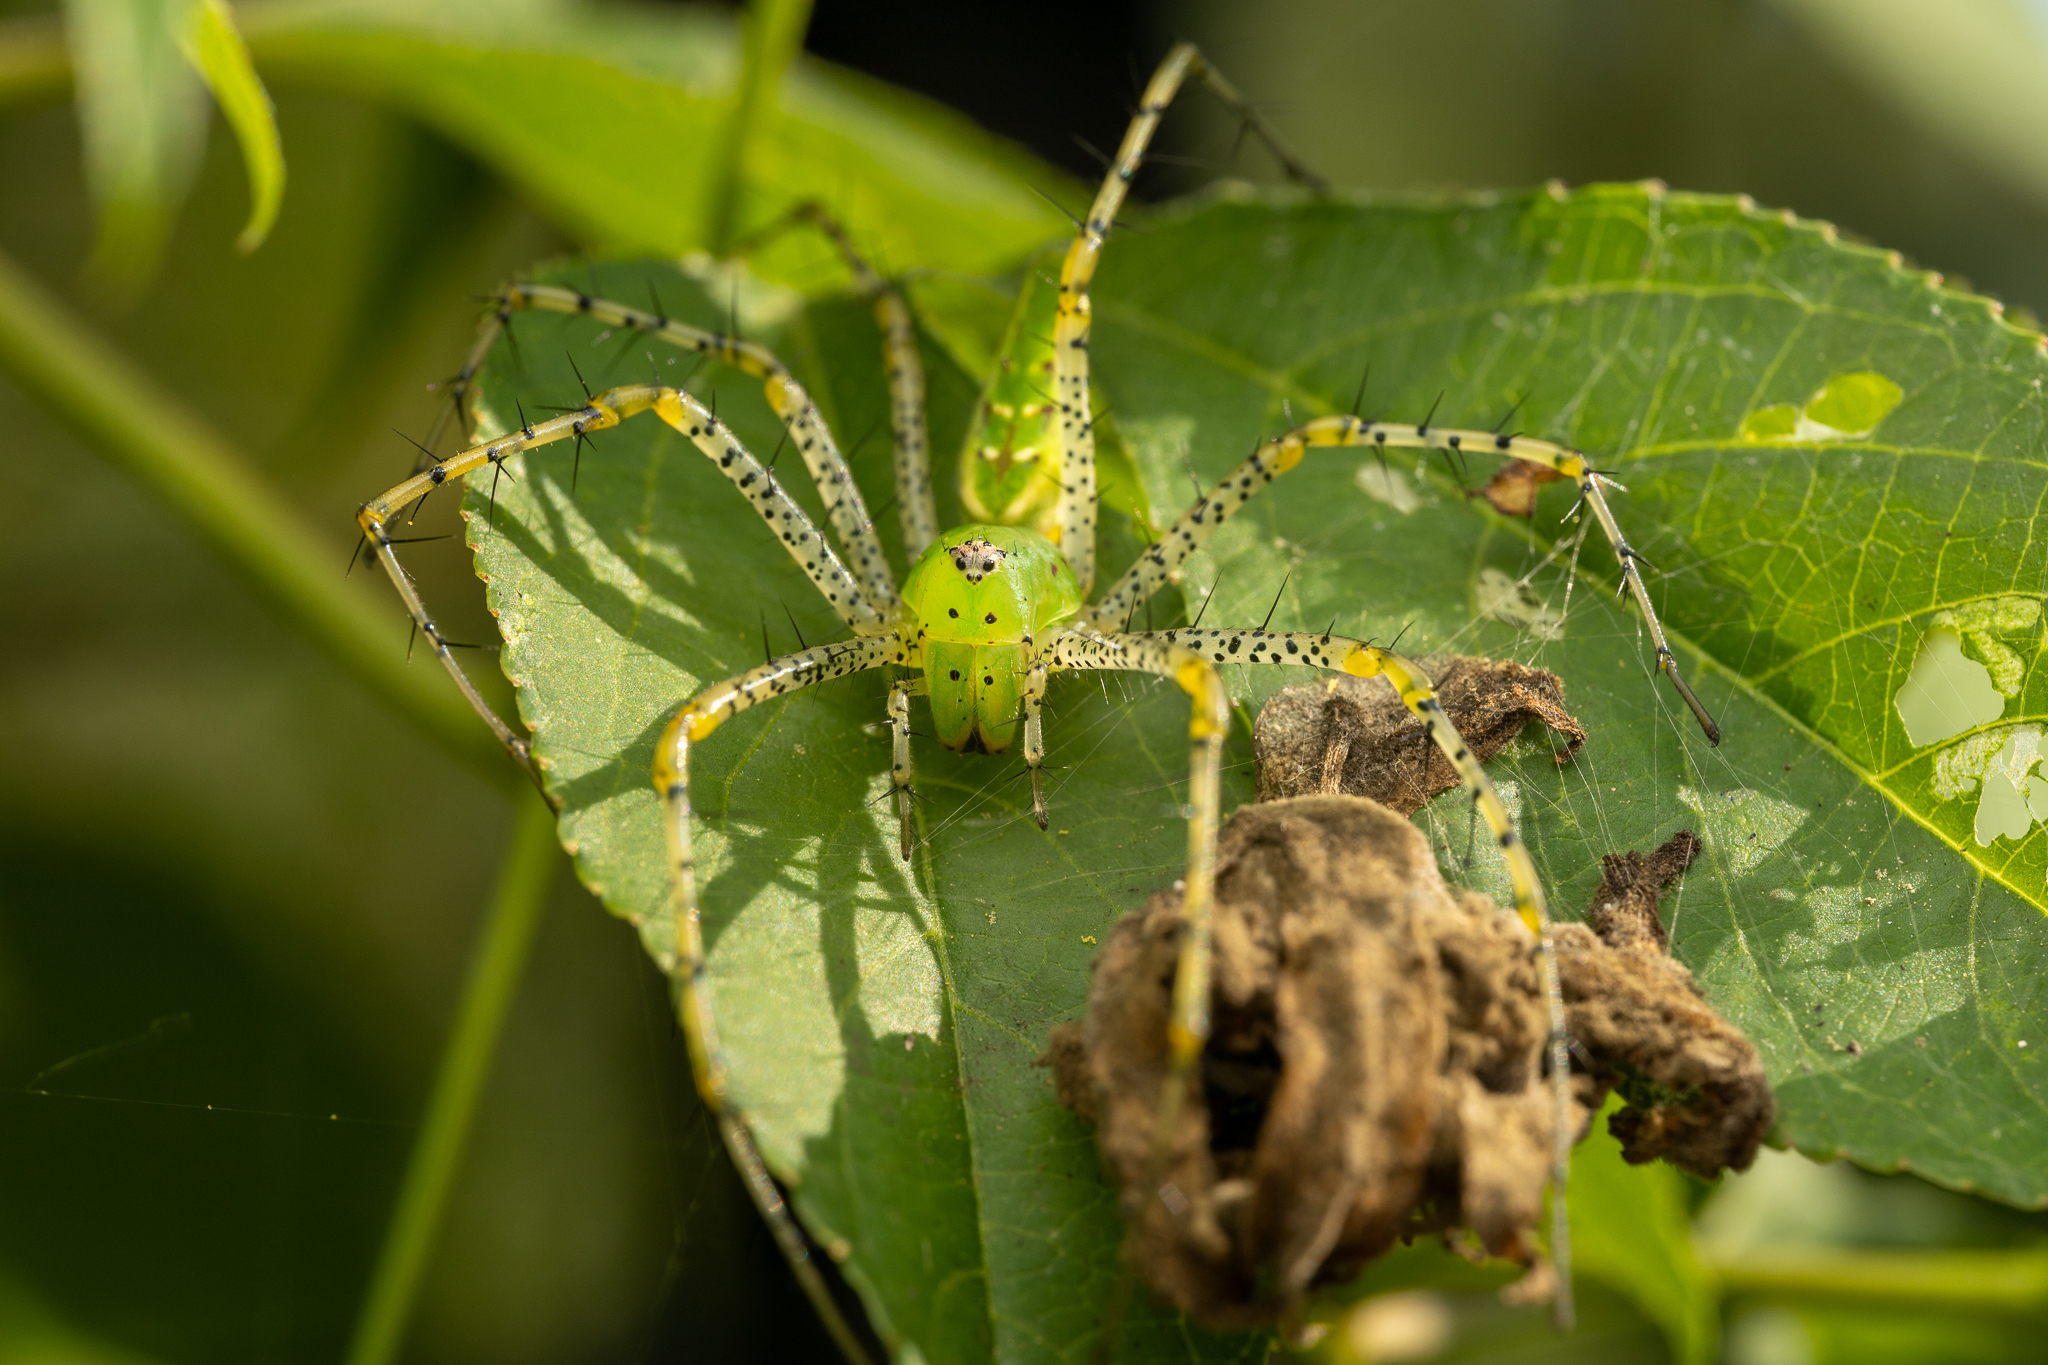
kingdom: Animalia
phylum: Arthropoda
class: Arachnida
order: Araneae
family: Oxyopidae
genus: Peucetia
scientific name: Peucetia viridans
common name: Lynx spiders
